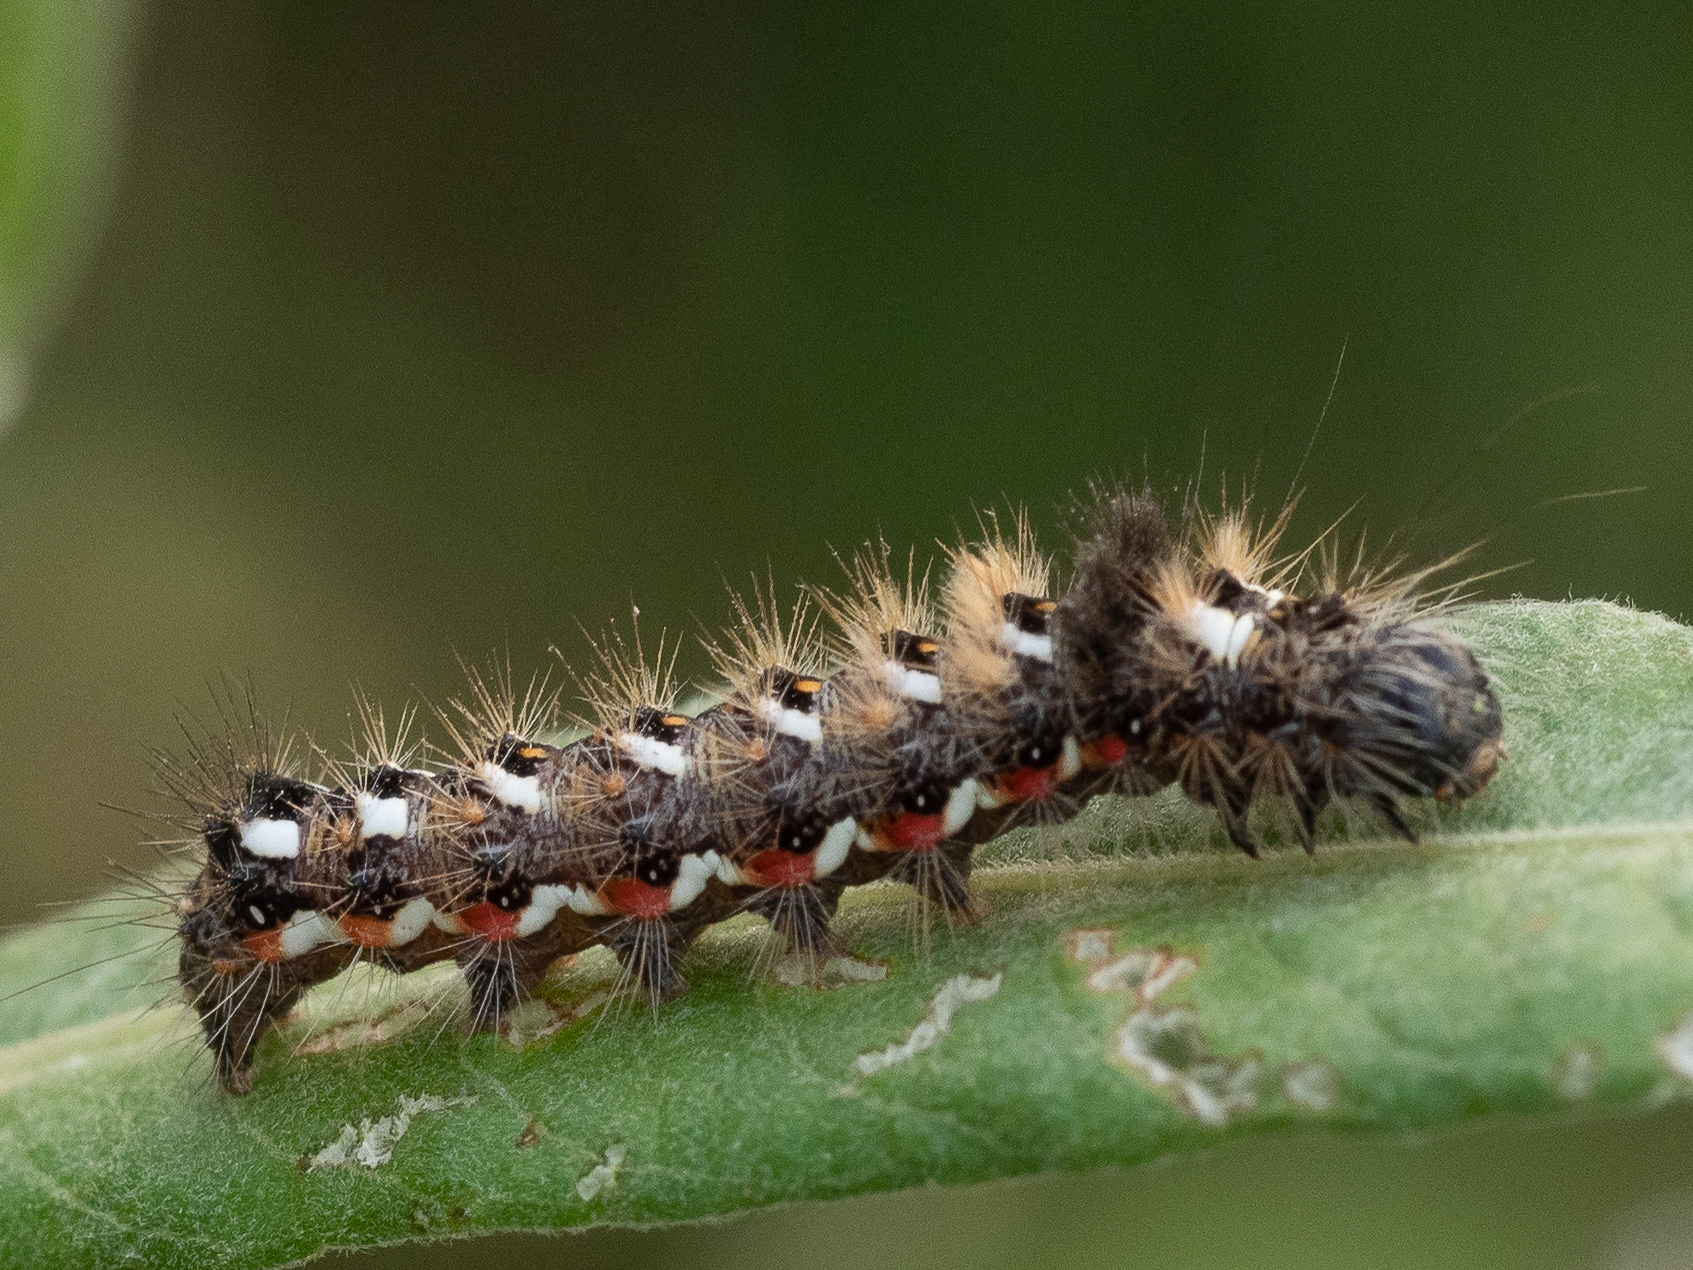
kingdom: Animalia
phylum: Arthropoda
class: Insecta
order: Lepidoptera
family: Noctuidae
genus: Acronicta
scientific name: Acronicta rumicis
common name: Knot grass
